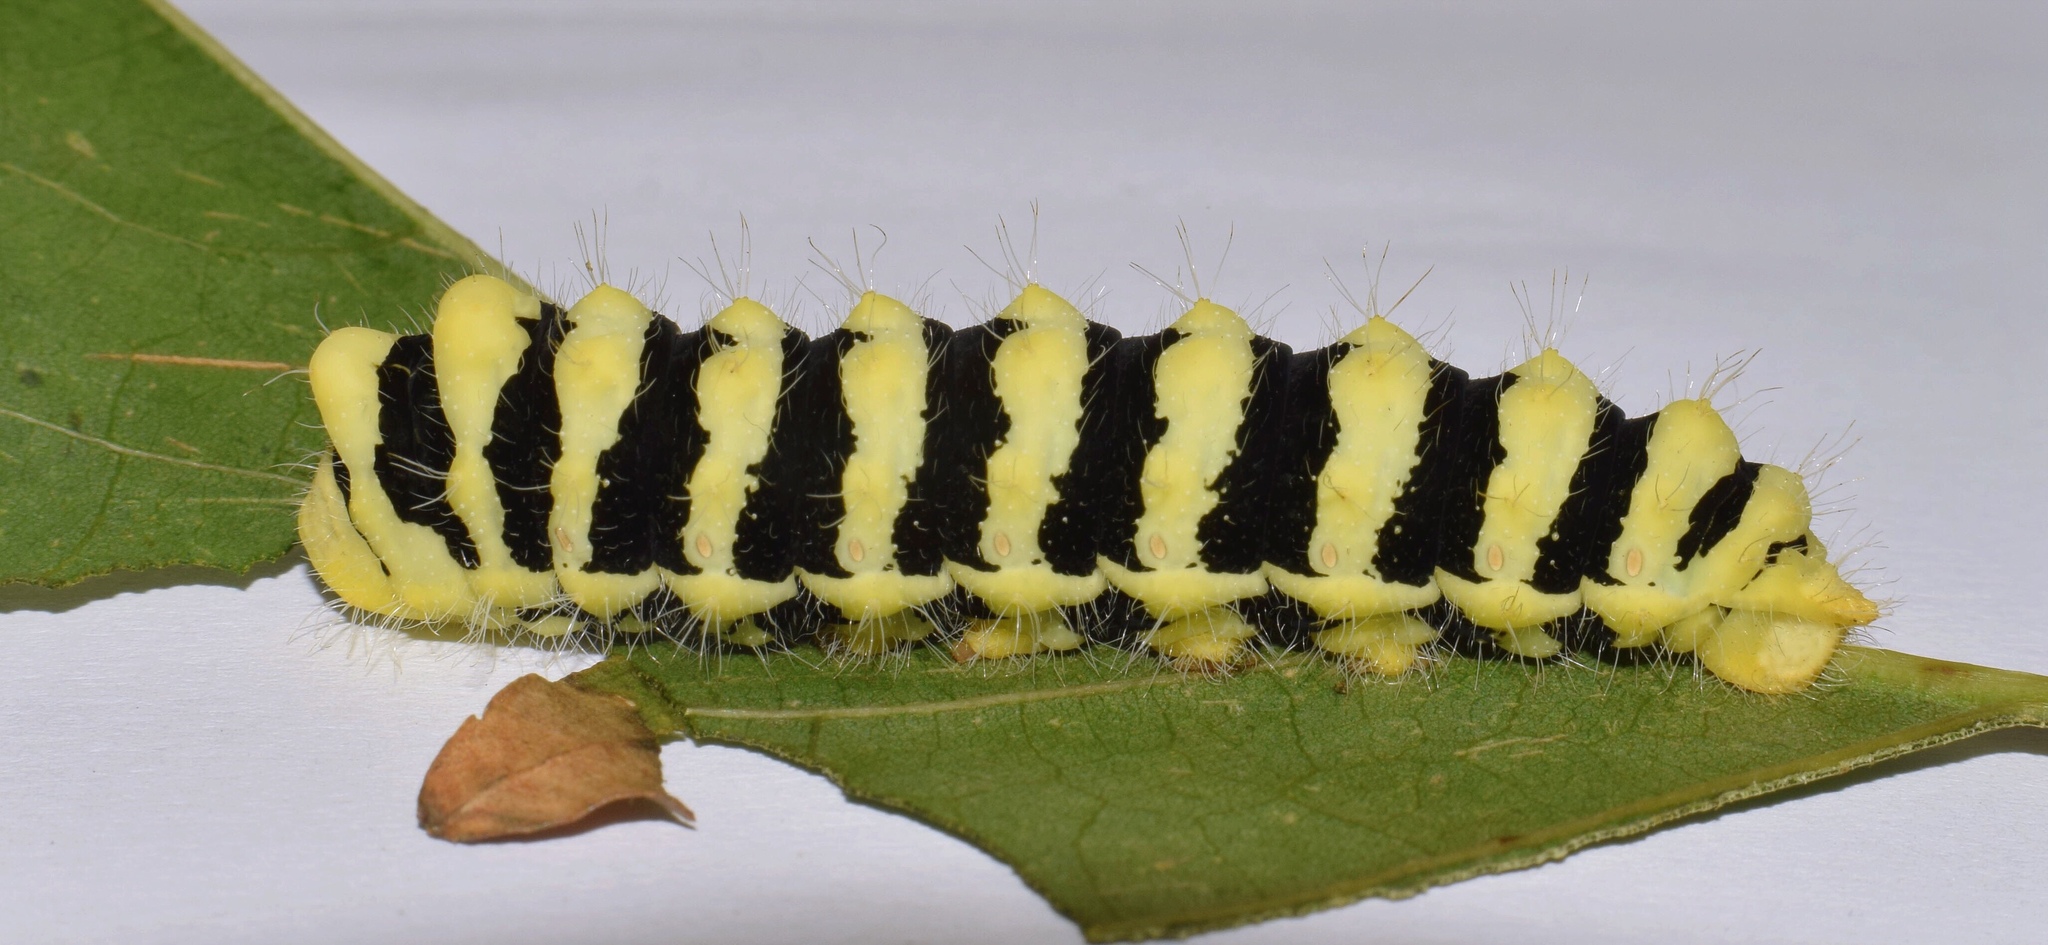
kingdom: Animalia
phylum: Arthropoda
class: Insecta
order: Lepidoptera
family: Saturniidae
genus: Urota
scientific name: Urota sinope
